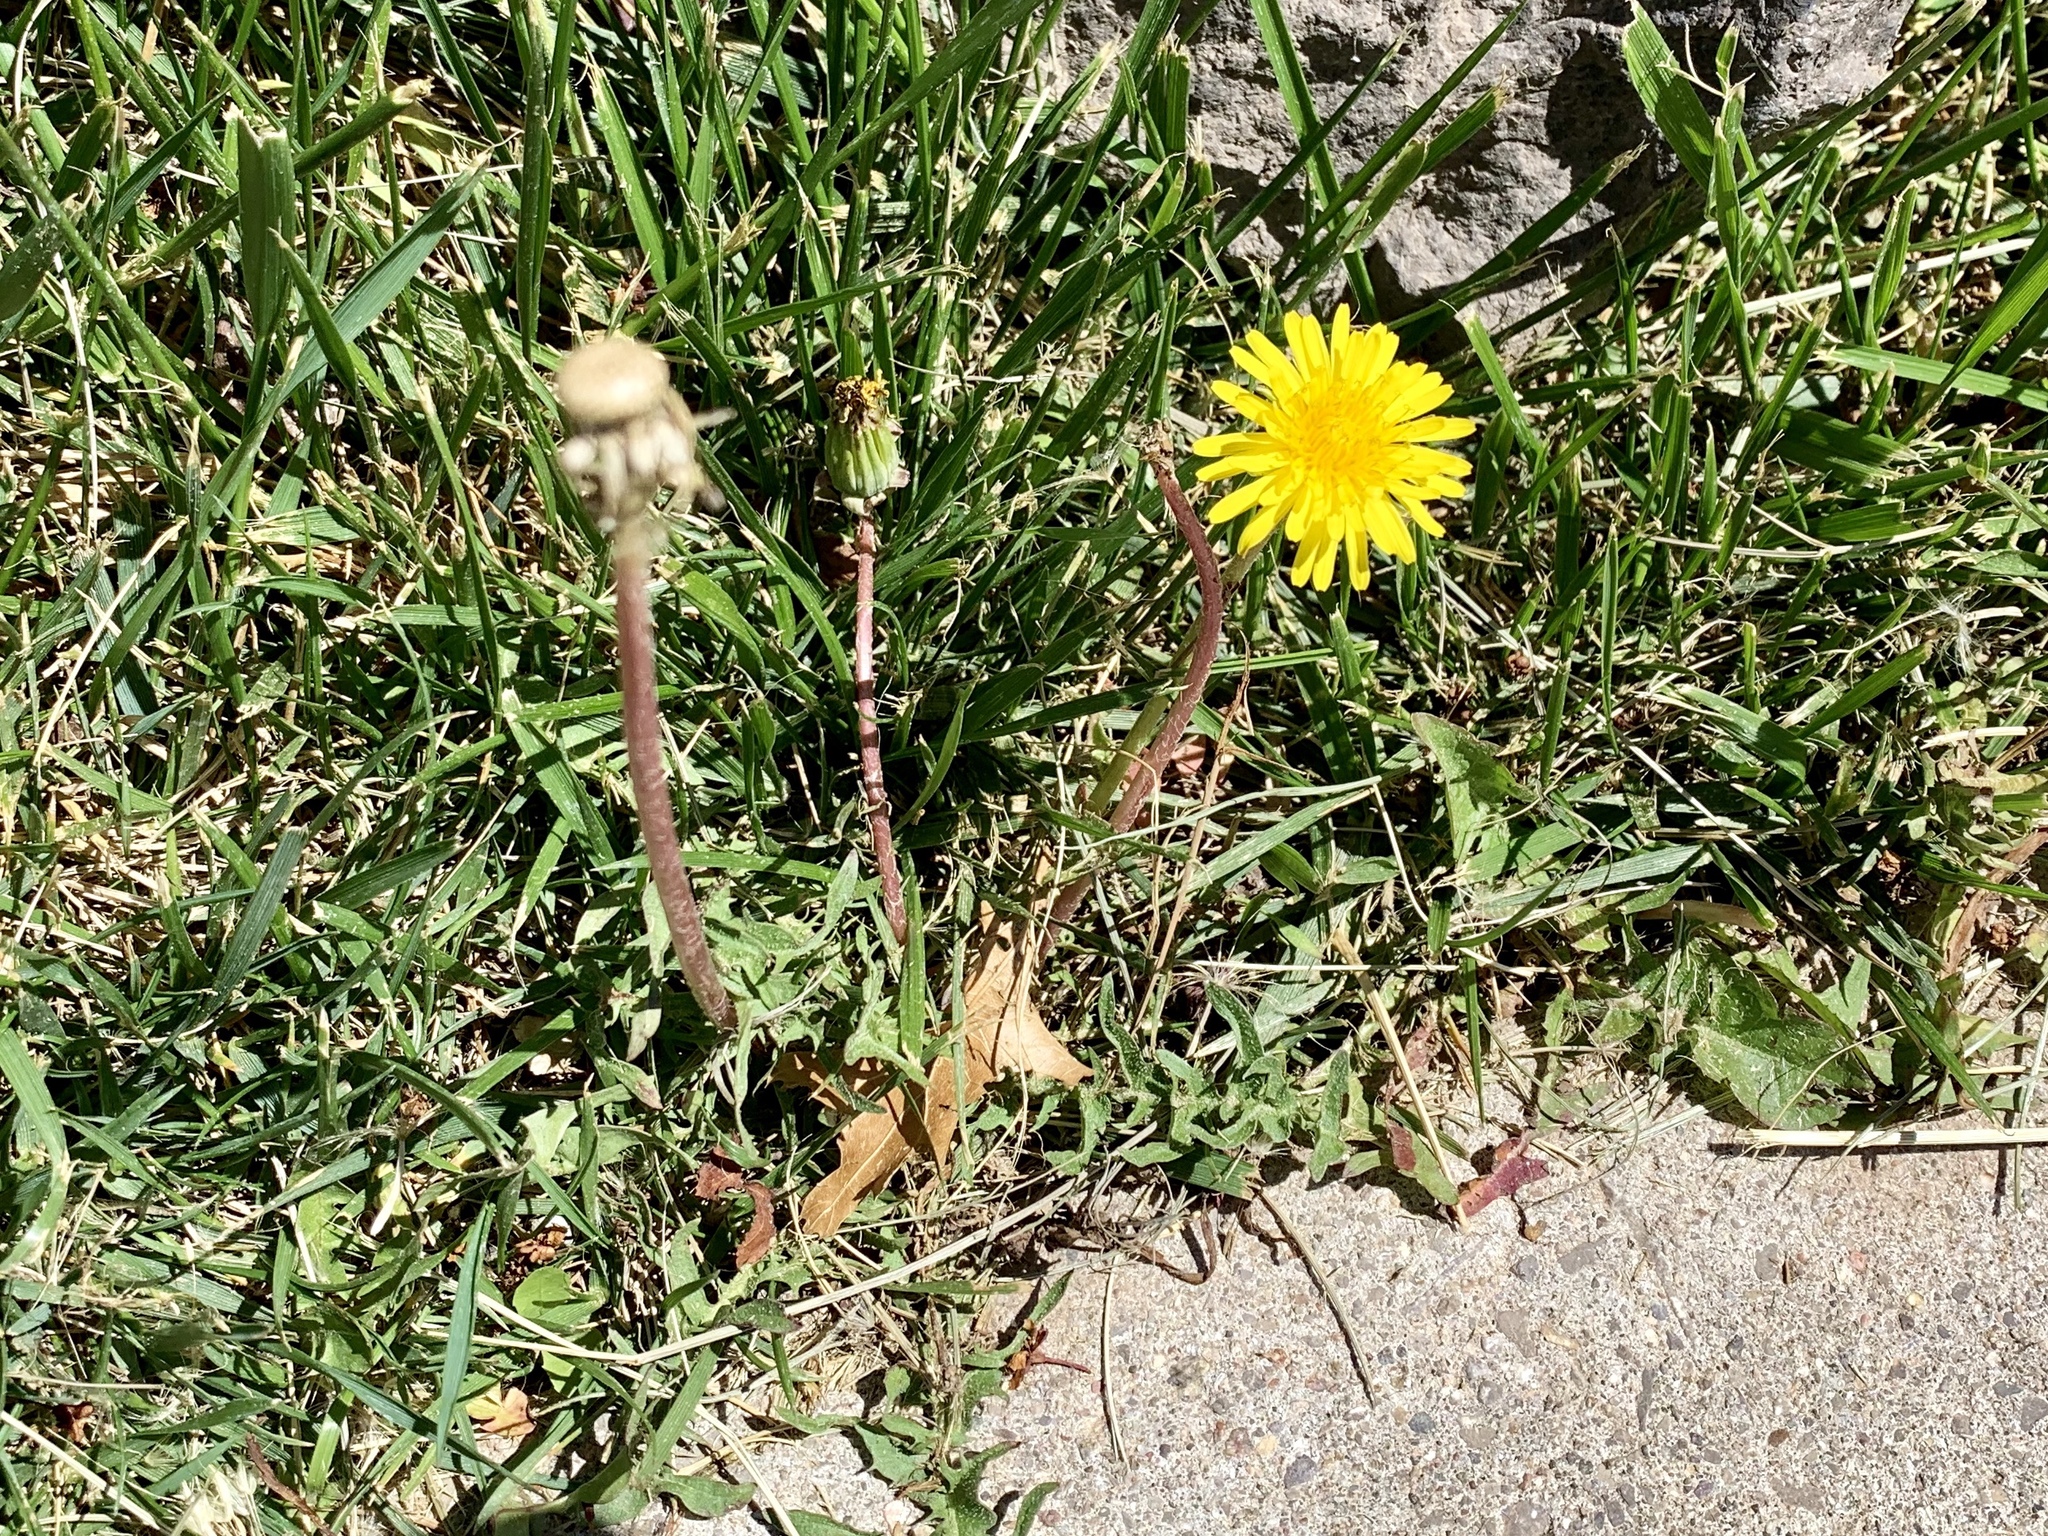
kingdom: Plantae
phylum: Tracheophyta
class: Magnoliopsida
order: Asterales
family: Asteraceae
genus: Taraxacum
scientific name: Taraxacum officinale
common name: Common dandelion
